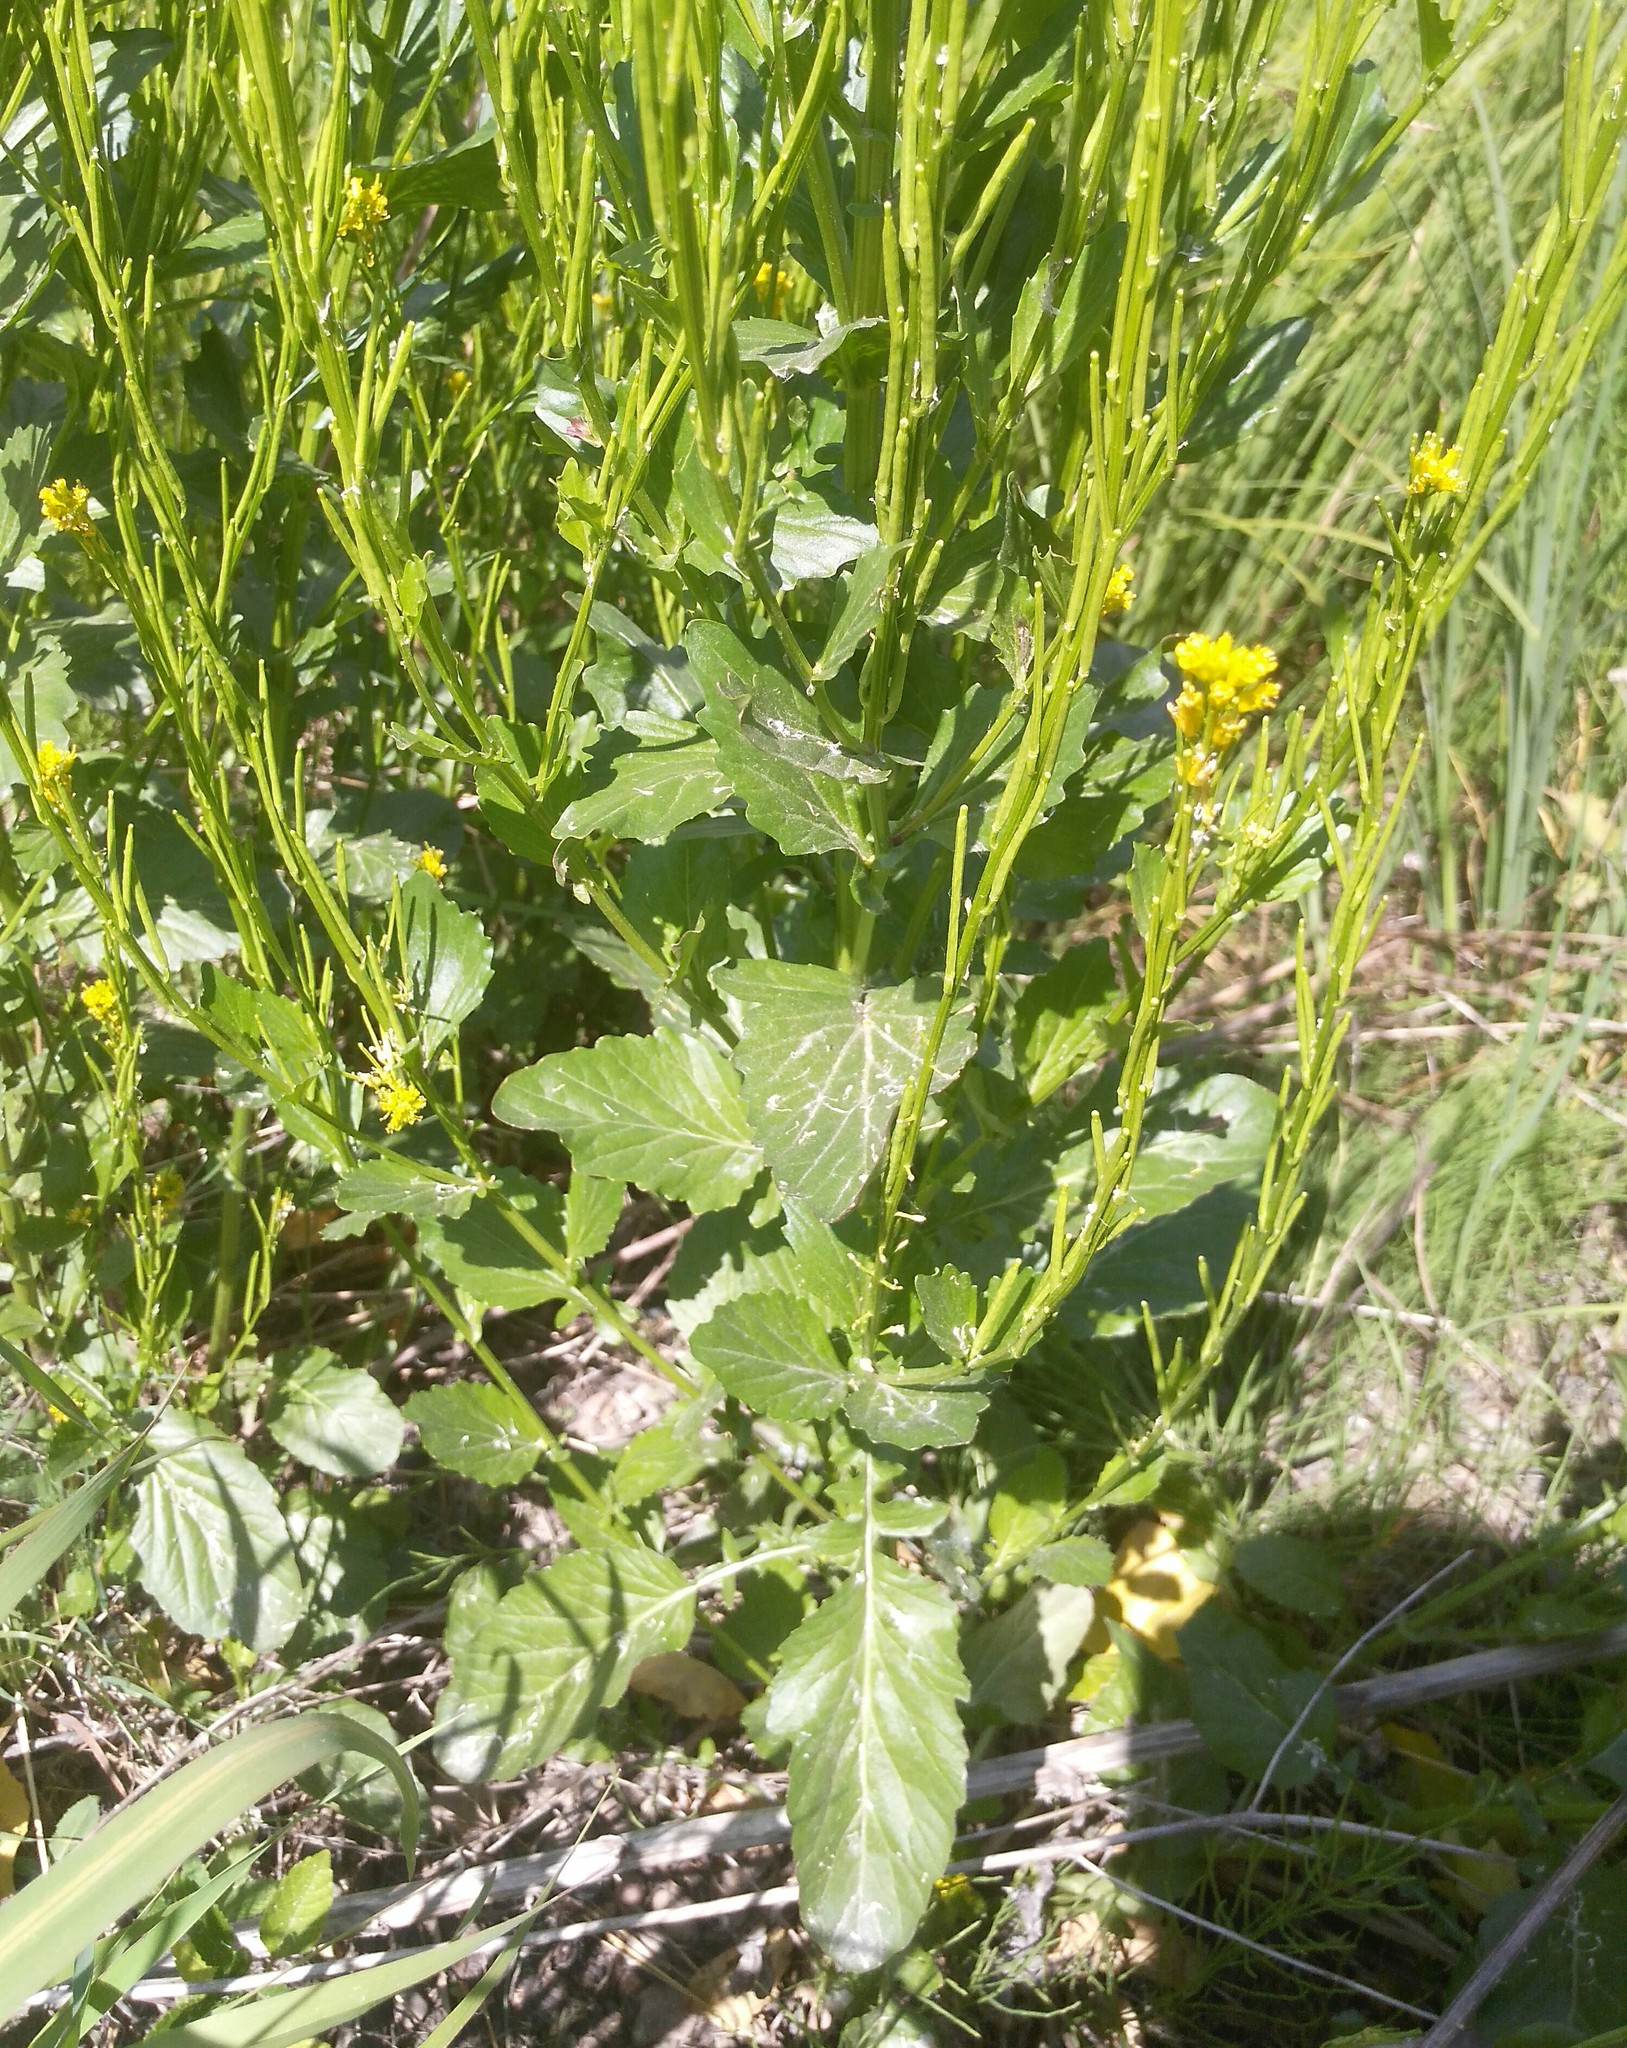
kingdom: Plantae
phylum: Tracheophyta
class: Magnoliopsida
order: Brassicales
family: Brassicaceae
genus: Barbarea
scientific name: Barbarea stricta
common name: Small-flowered winter-cress
